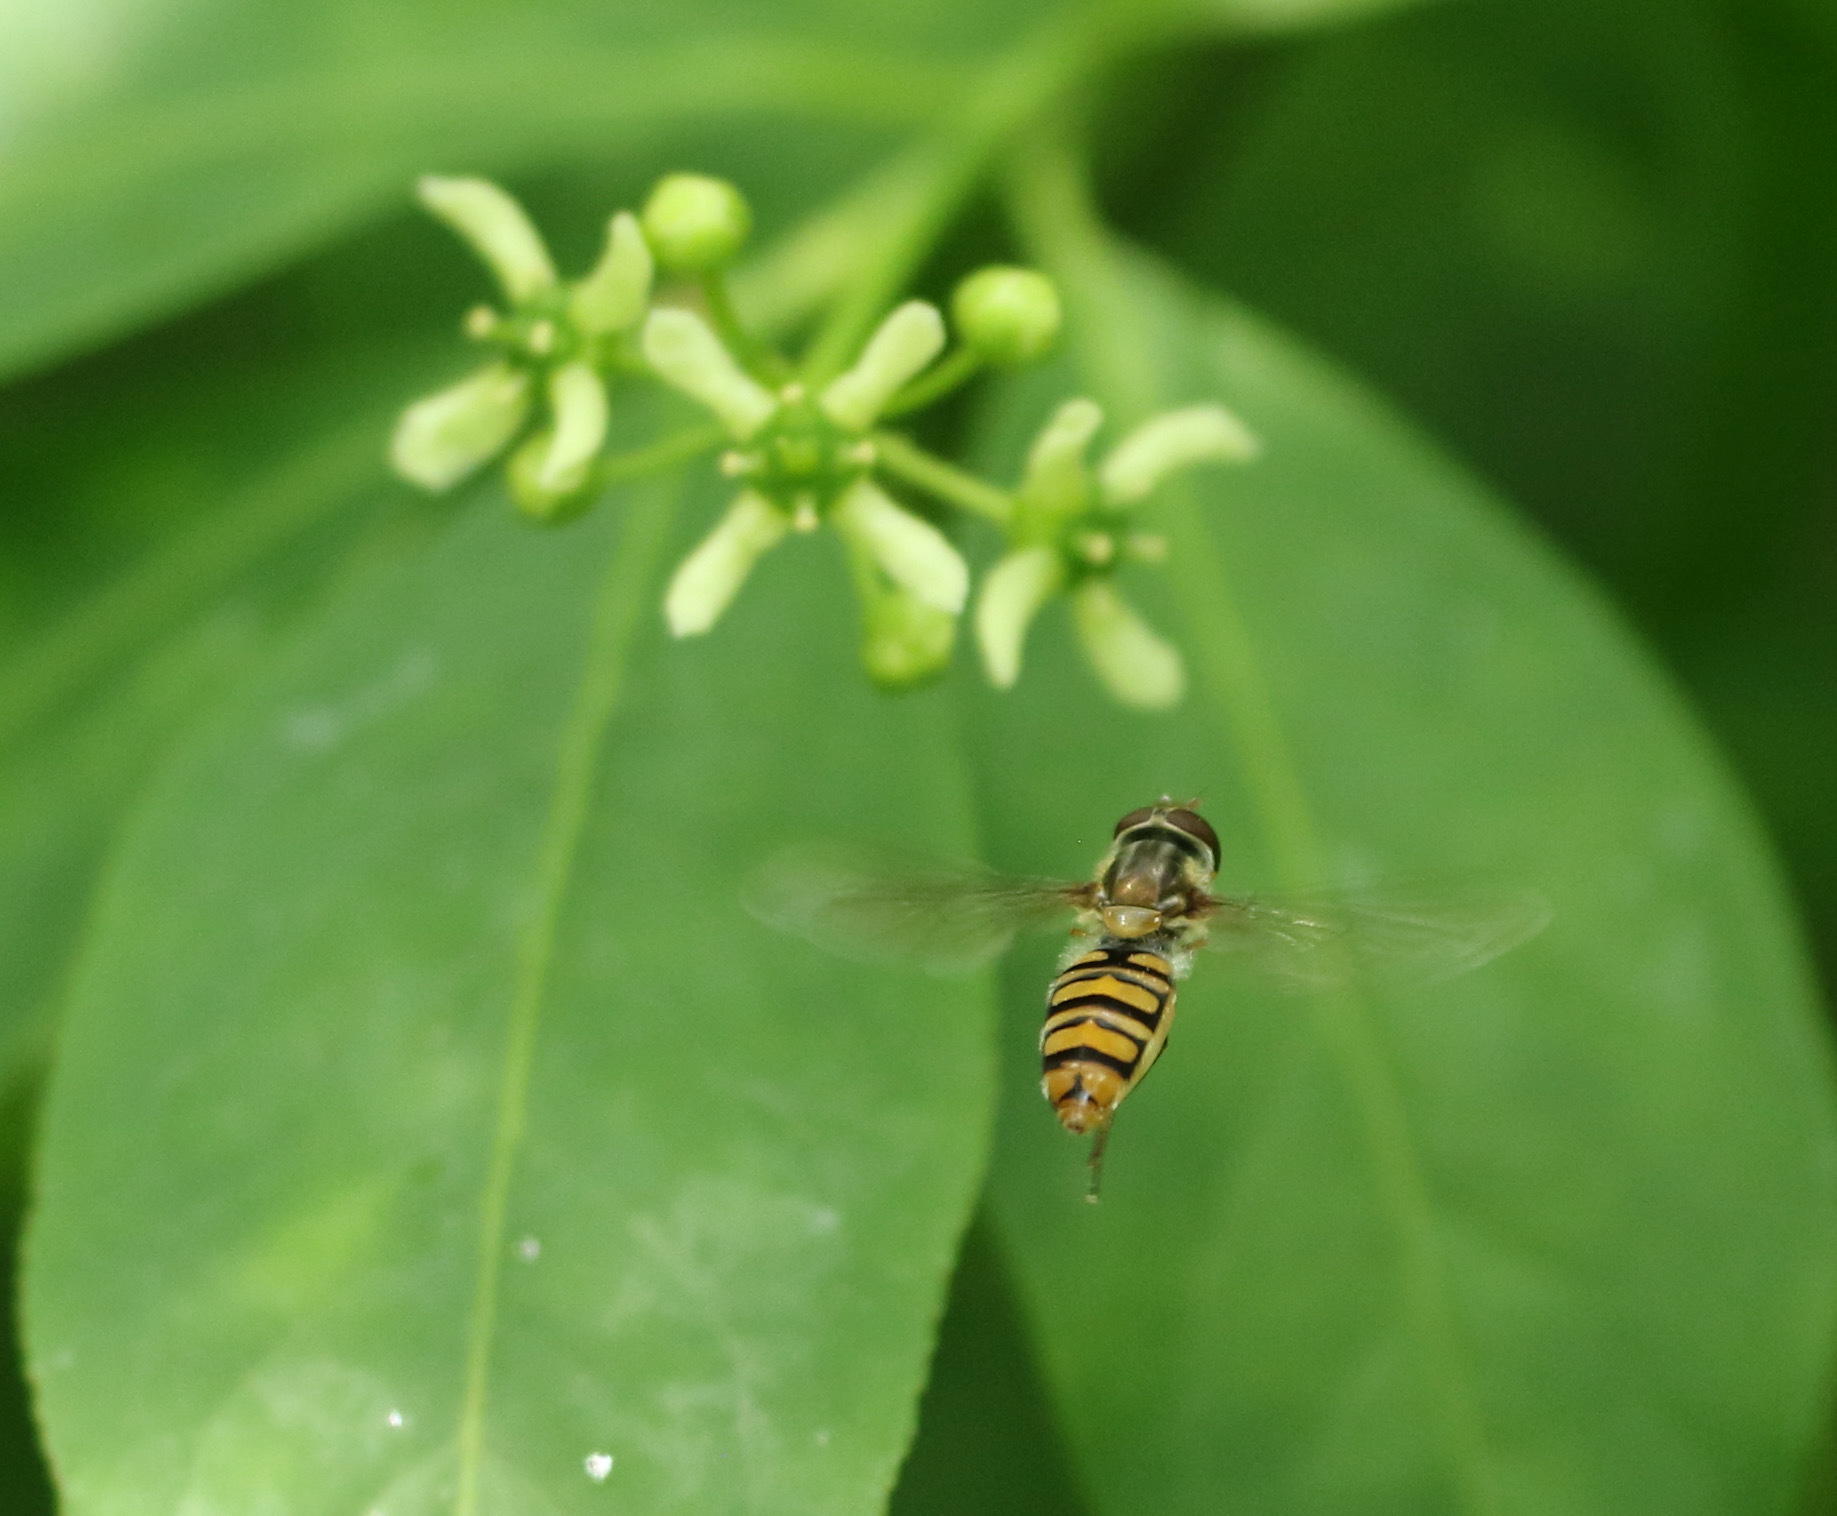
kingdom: Animalia
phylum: Arthropoda
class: Insecta
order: Diptera
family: Syrphidae
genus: Episyrphus
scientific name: Episyrphus balteatus
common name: Marmalade hoverfly
